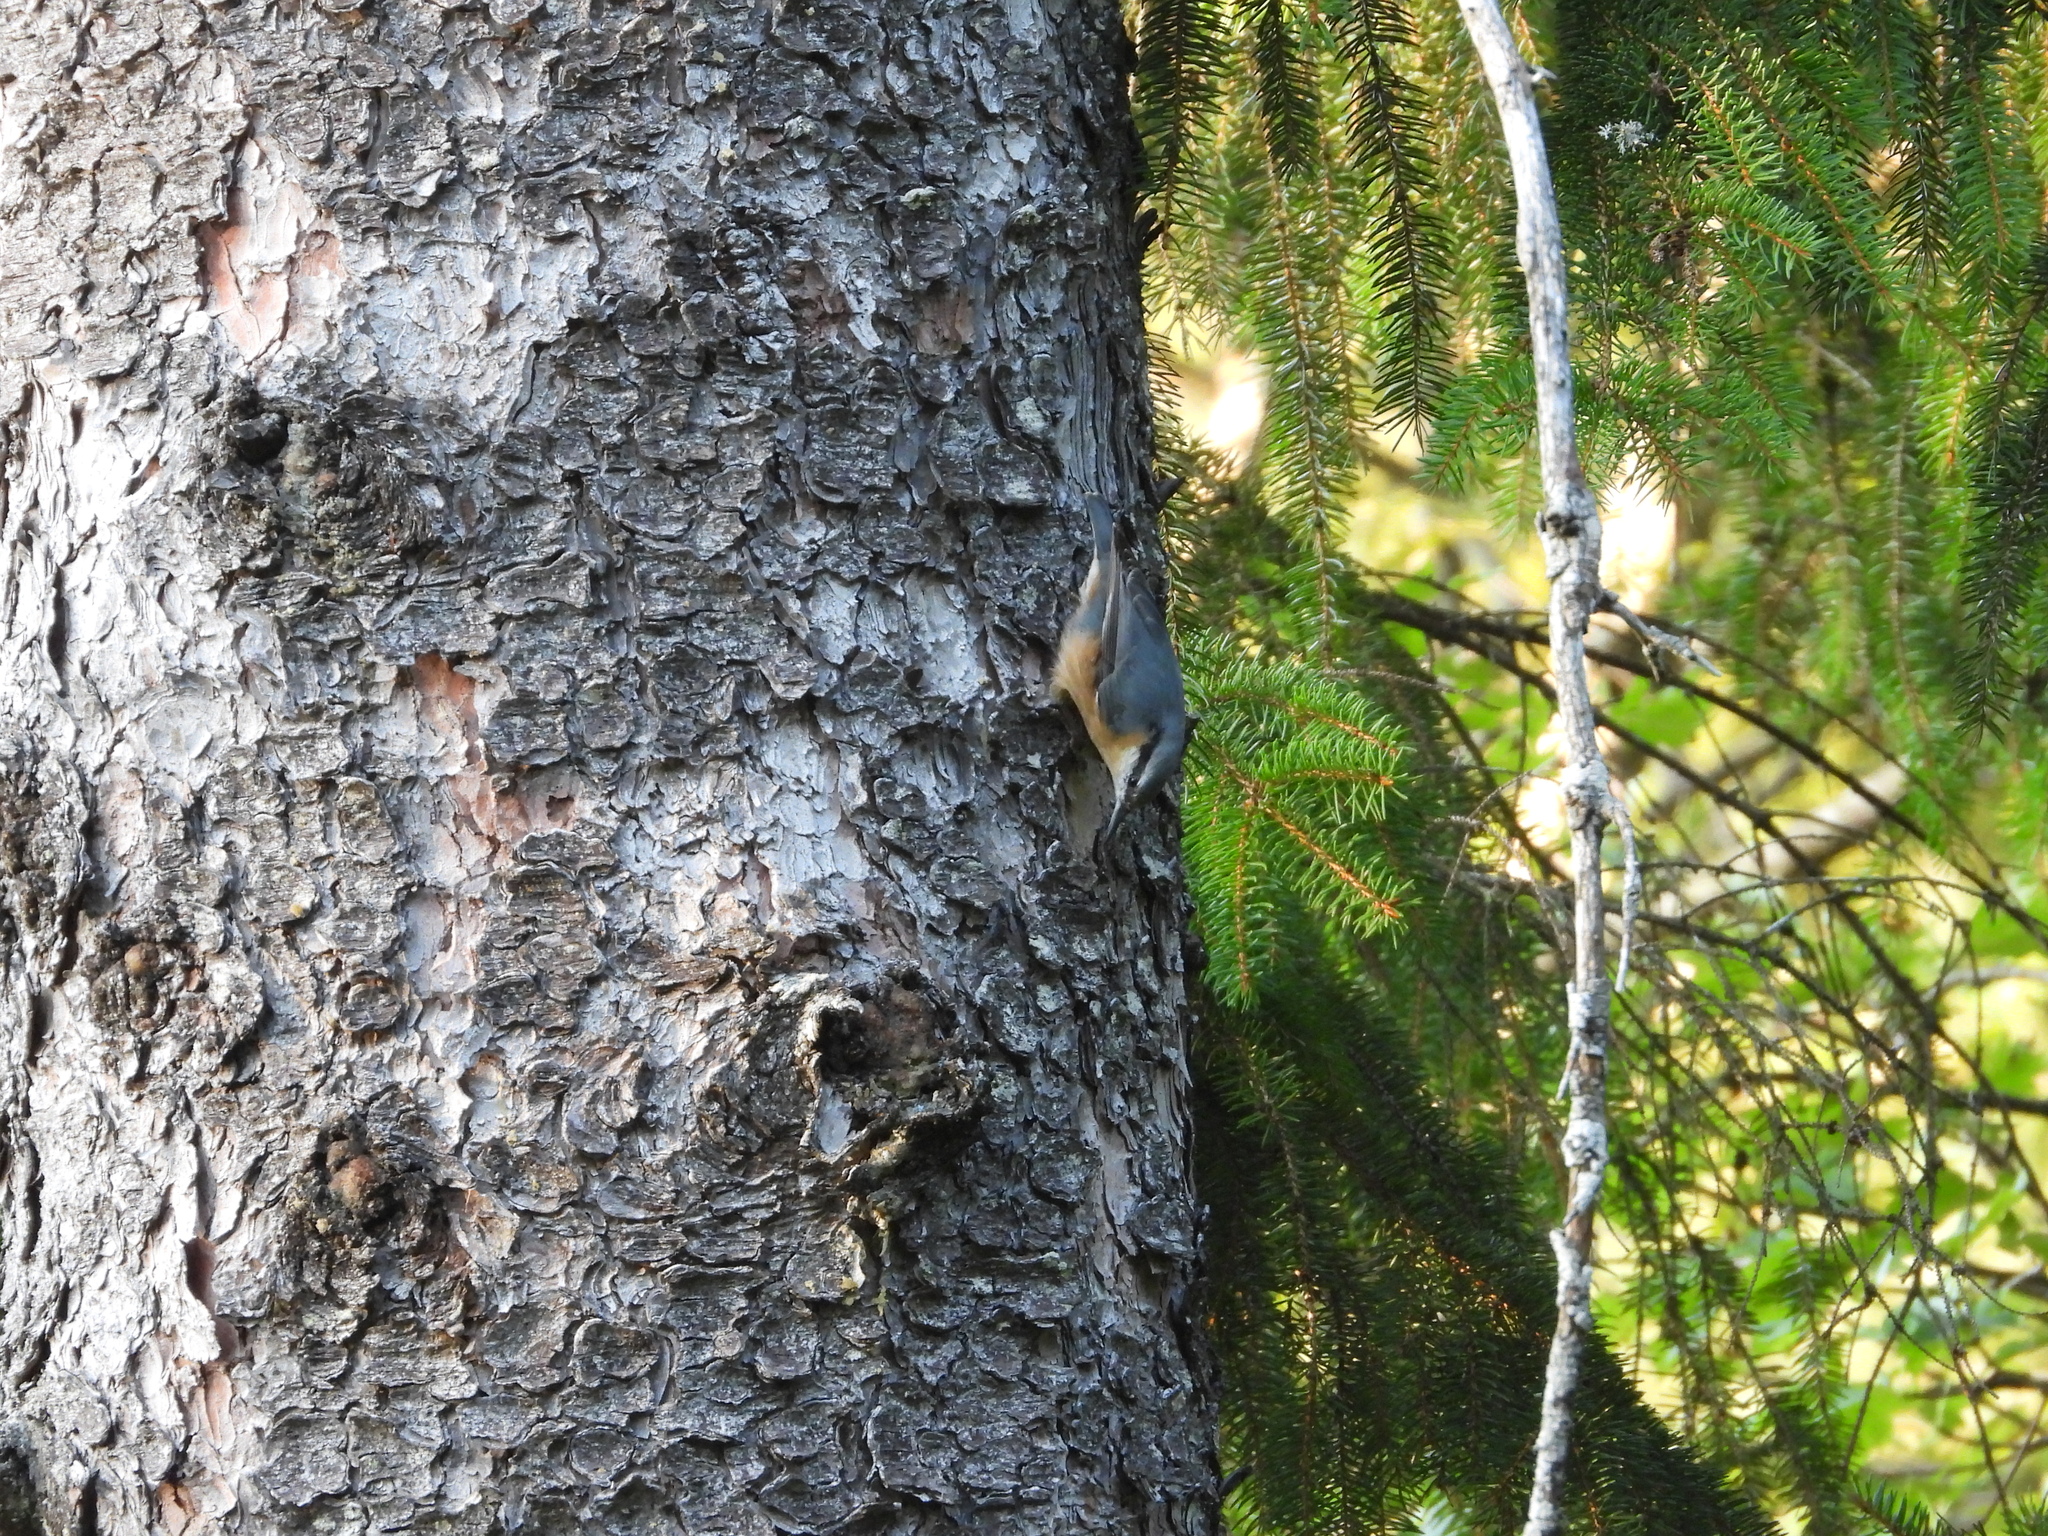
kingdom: Animalia
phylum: Chordata
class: Aves
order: Passeriformes
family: Sittidae
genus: Sitta
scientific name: Sitta europaea
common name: Eurasian nuthatch
